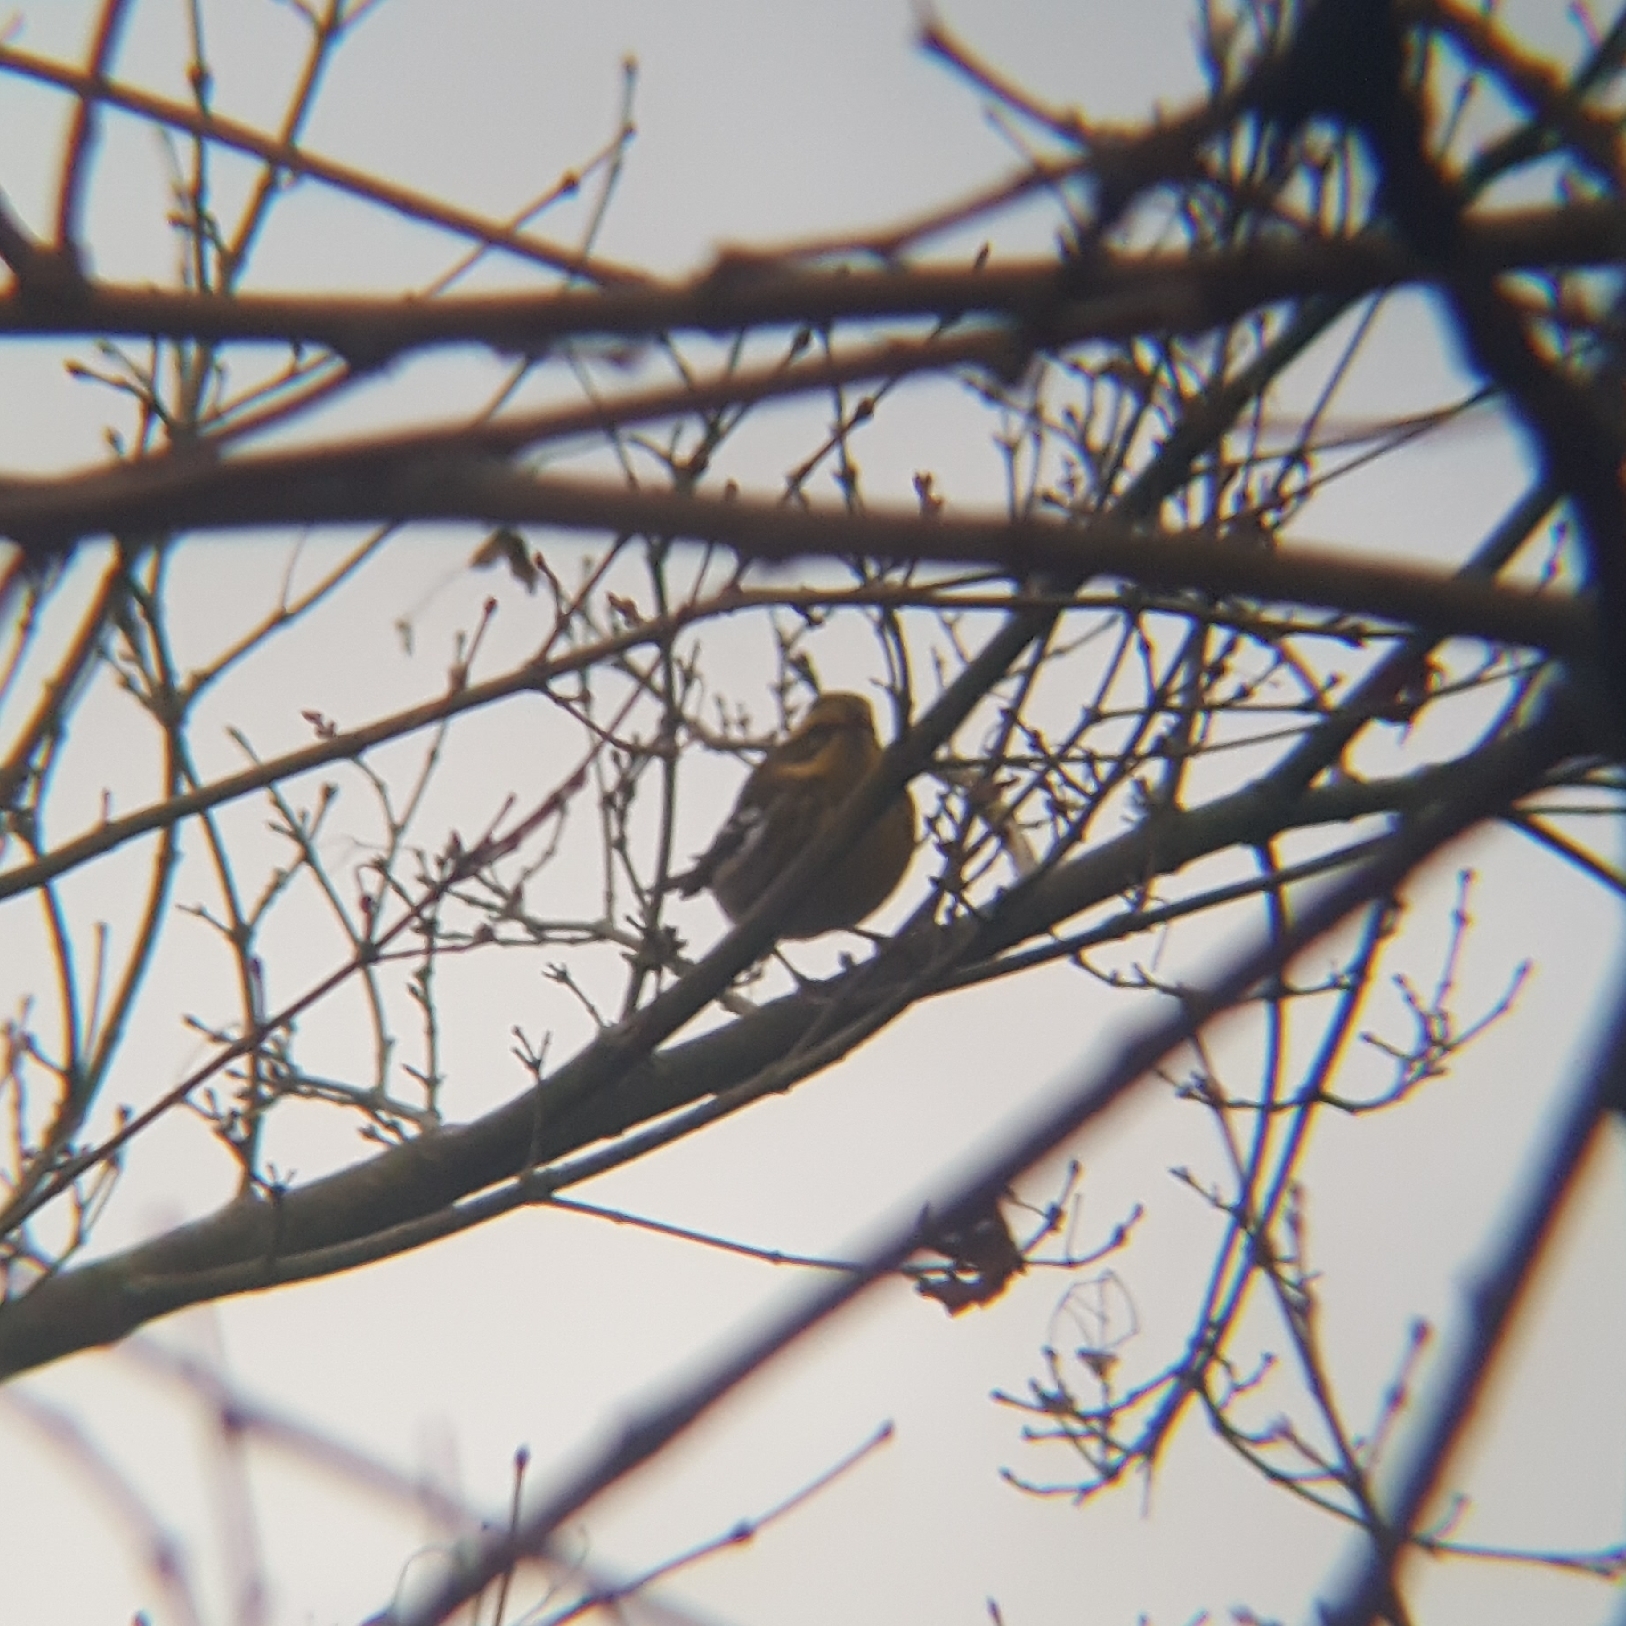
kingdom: Animalia
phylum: Chordata
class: Aves
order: Passeriformes
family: Parulidae
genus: Setophaga
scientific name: Setophaga townsendi
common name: Townsend's warbler
